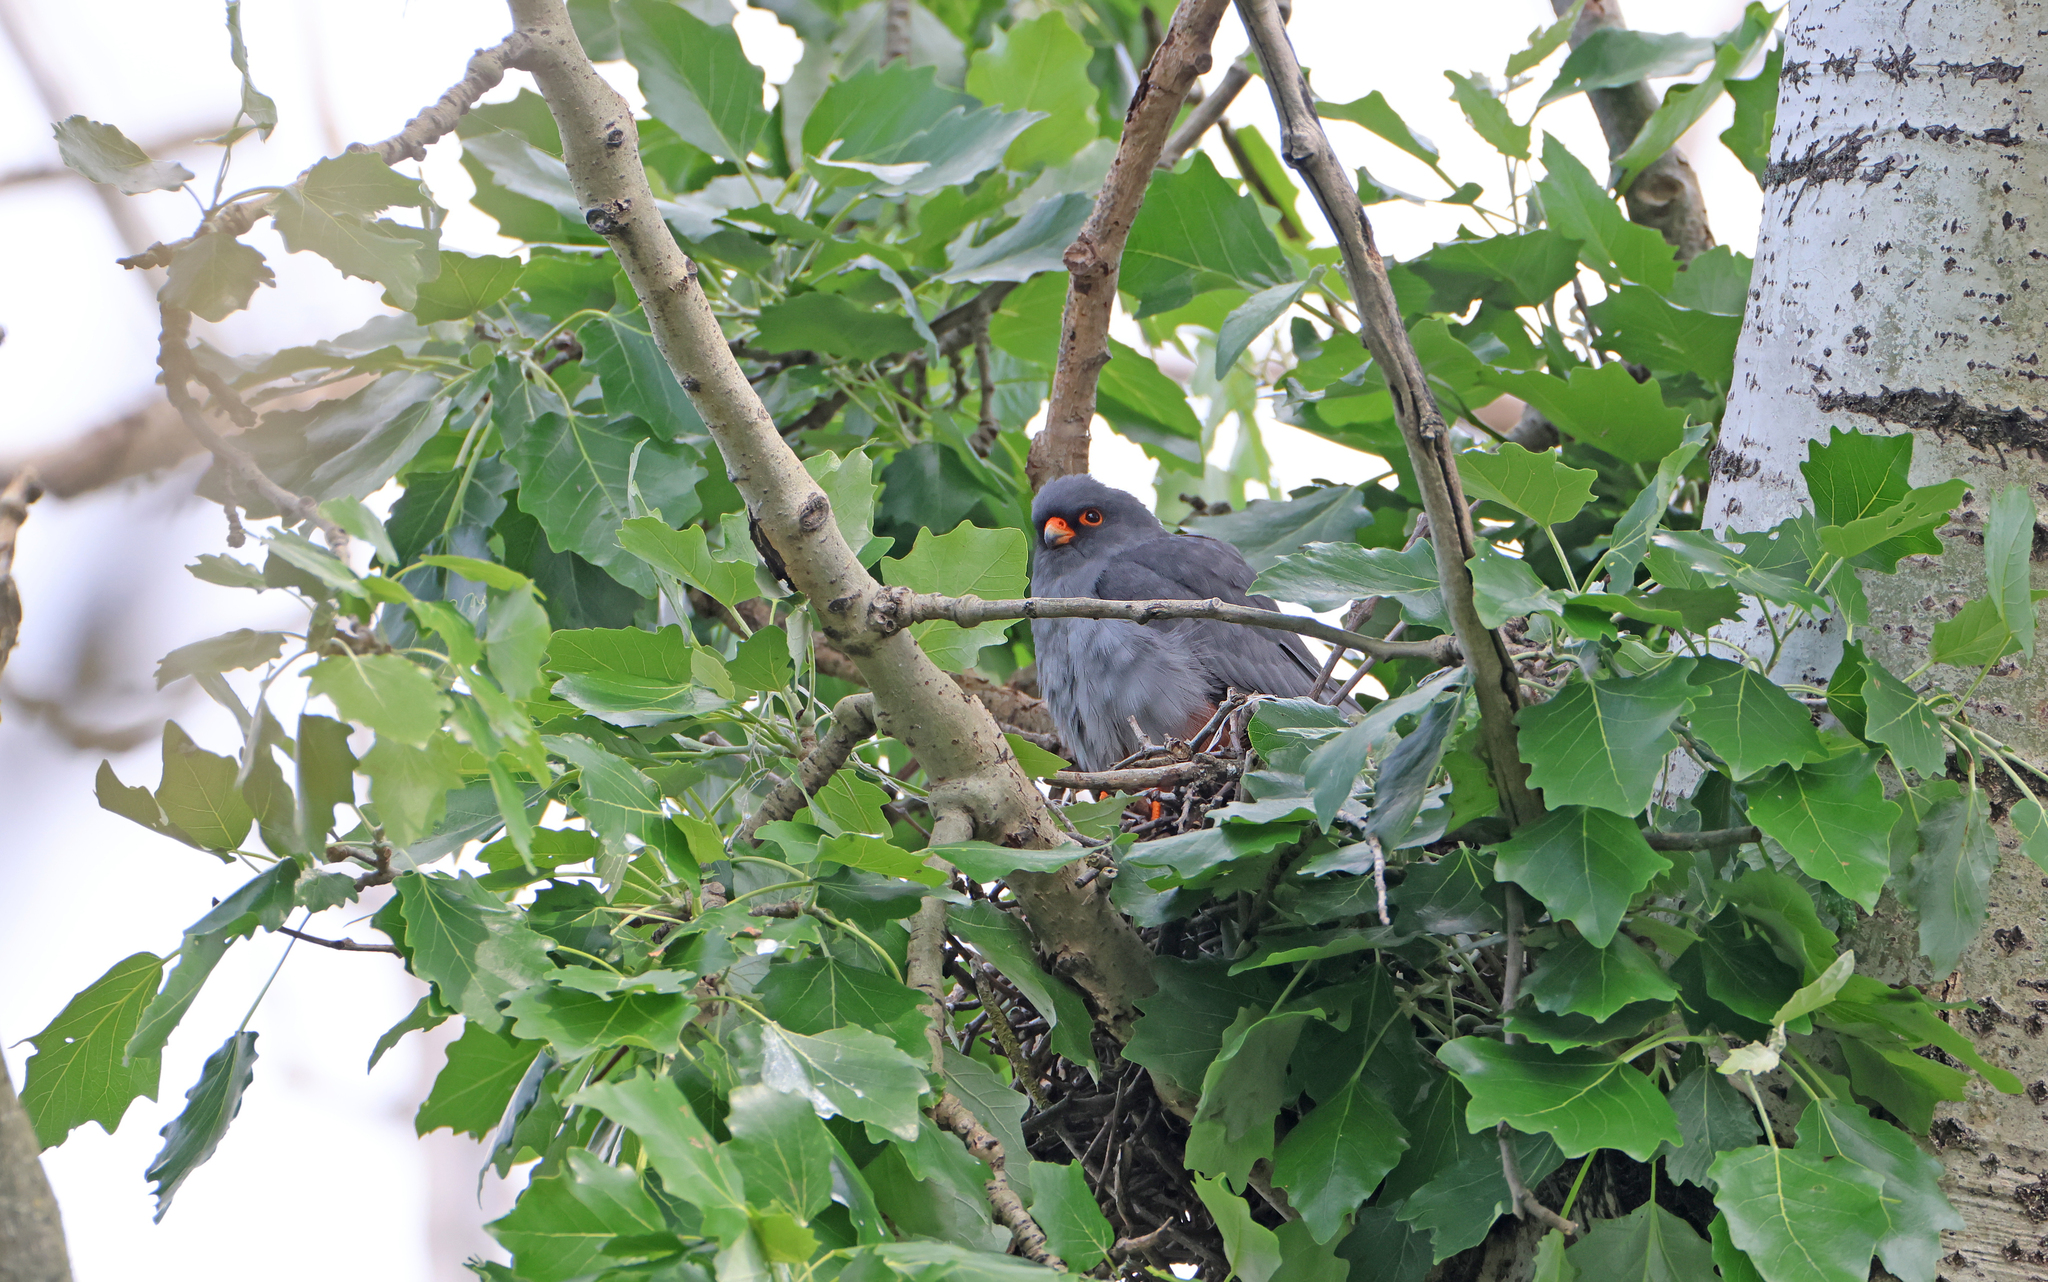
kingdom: Animalia
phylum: Chordata
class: Aves
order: Falconiformes
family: Falconidae
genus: Falco
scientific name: Falco vespertinus
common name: Red-footed falcon
